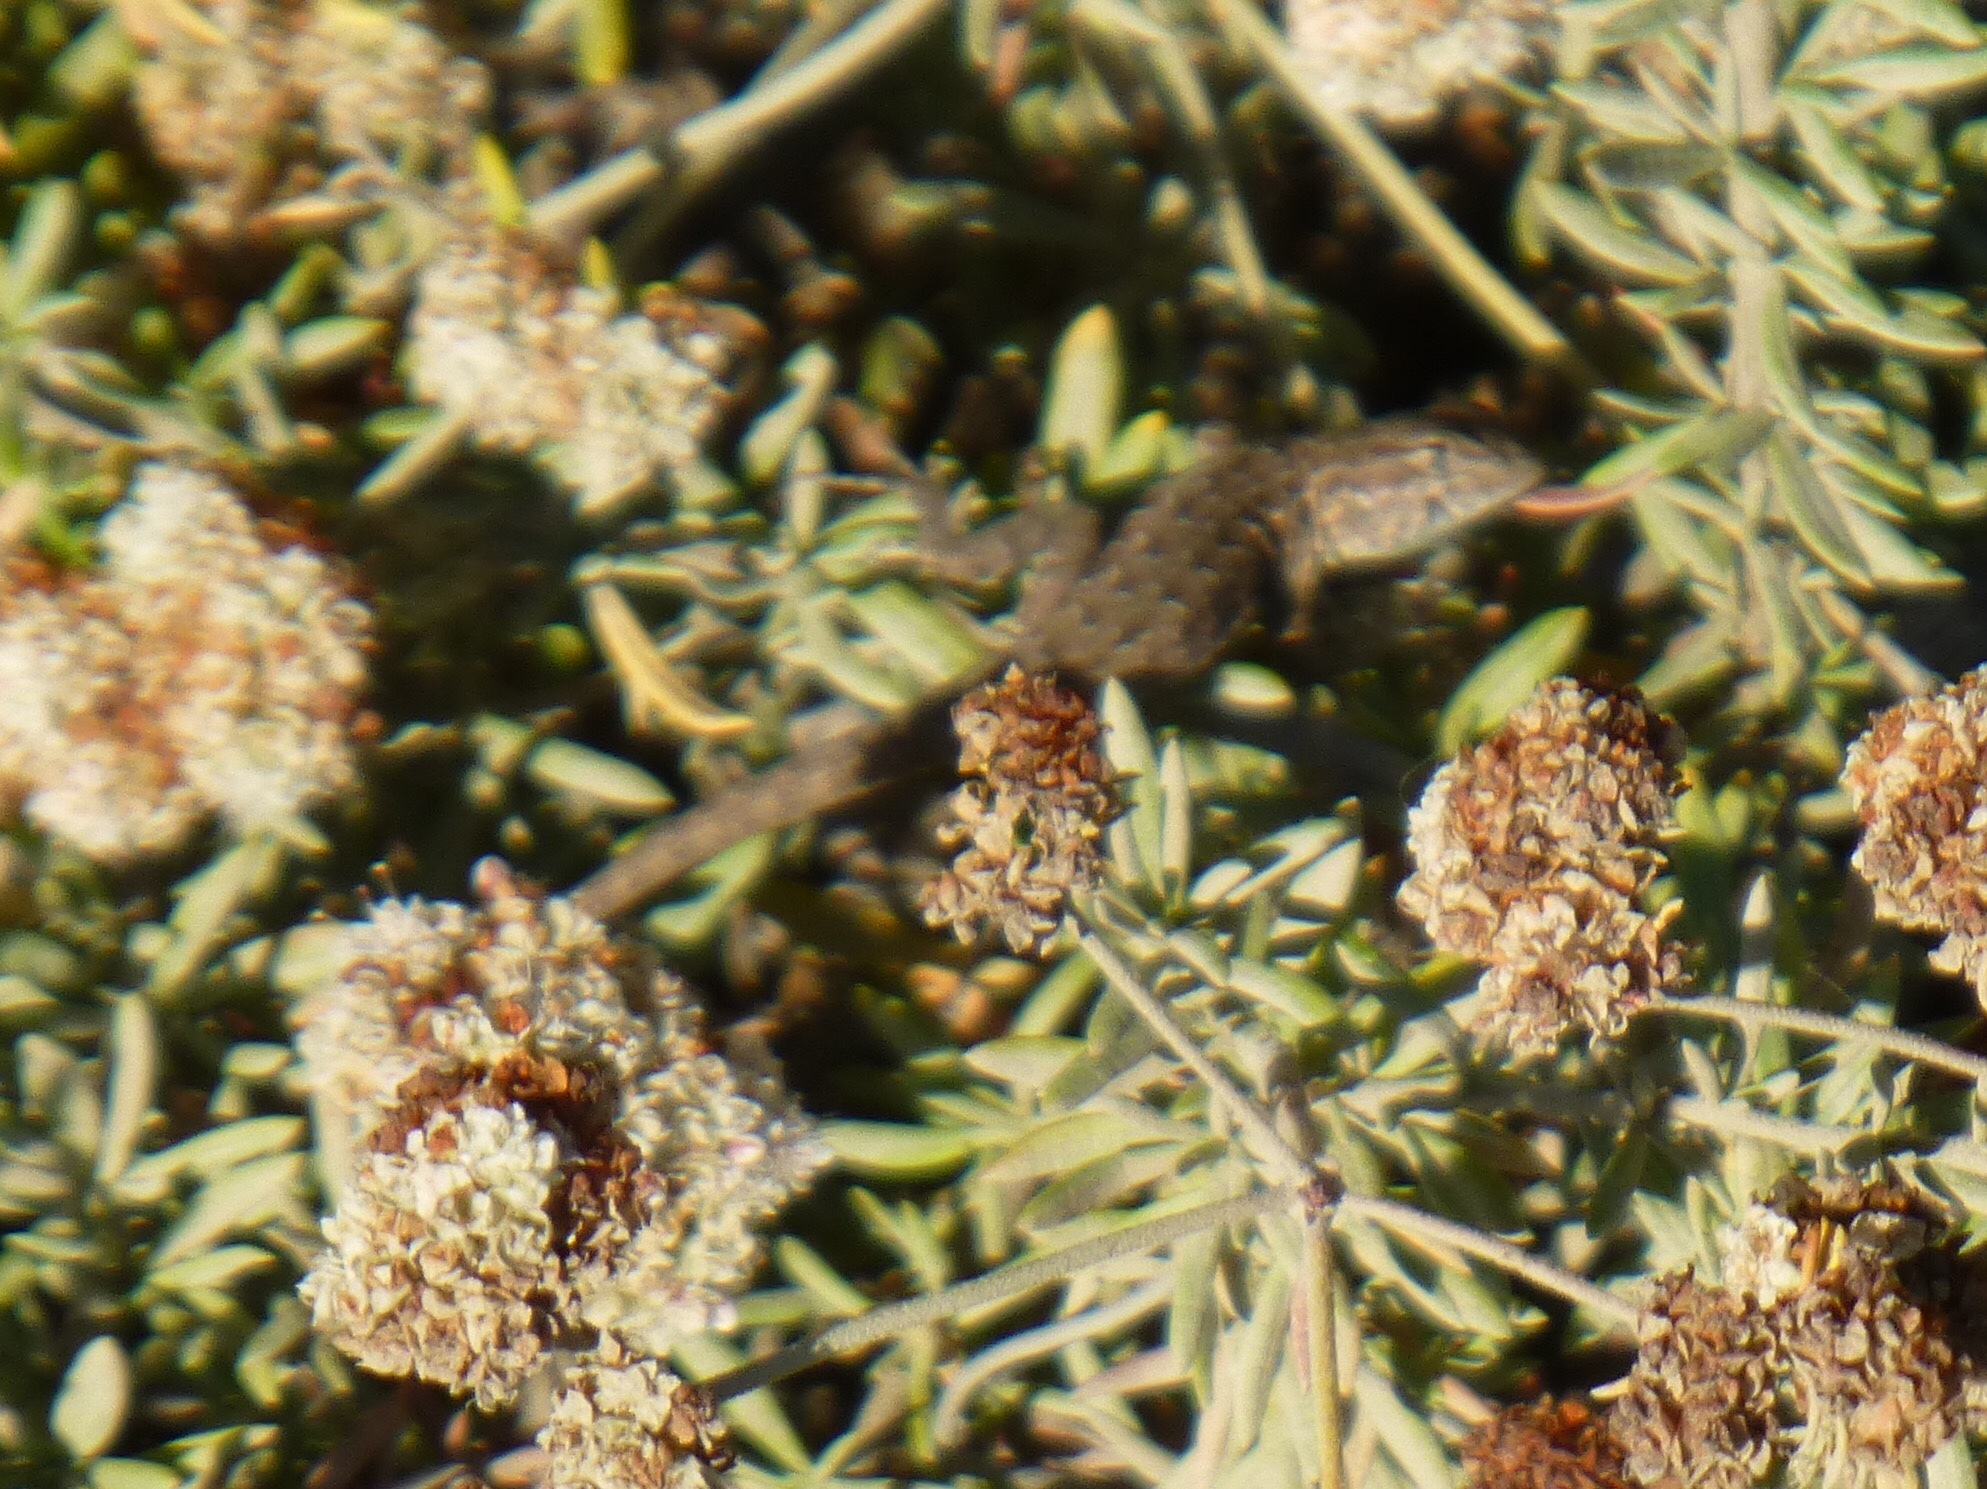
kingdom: Animalia
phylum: Chordata
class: Squamata
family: Phrynosomatidae
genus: Uta
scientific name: Uta stansburiana
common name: Side-blotched lizard
